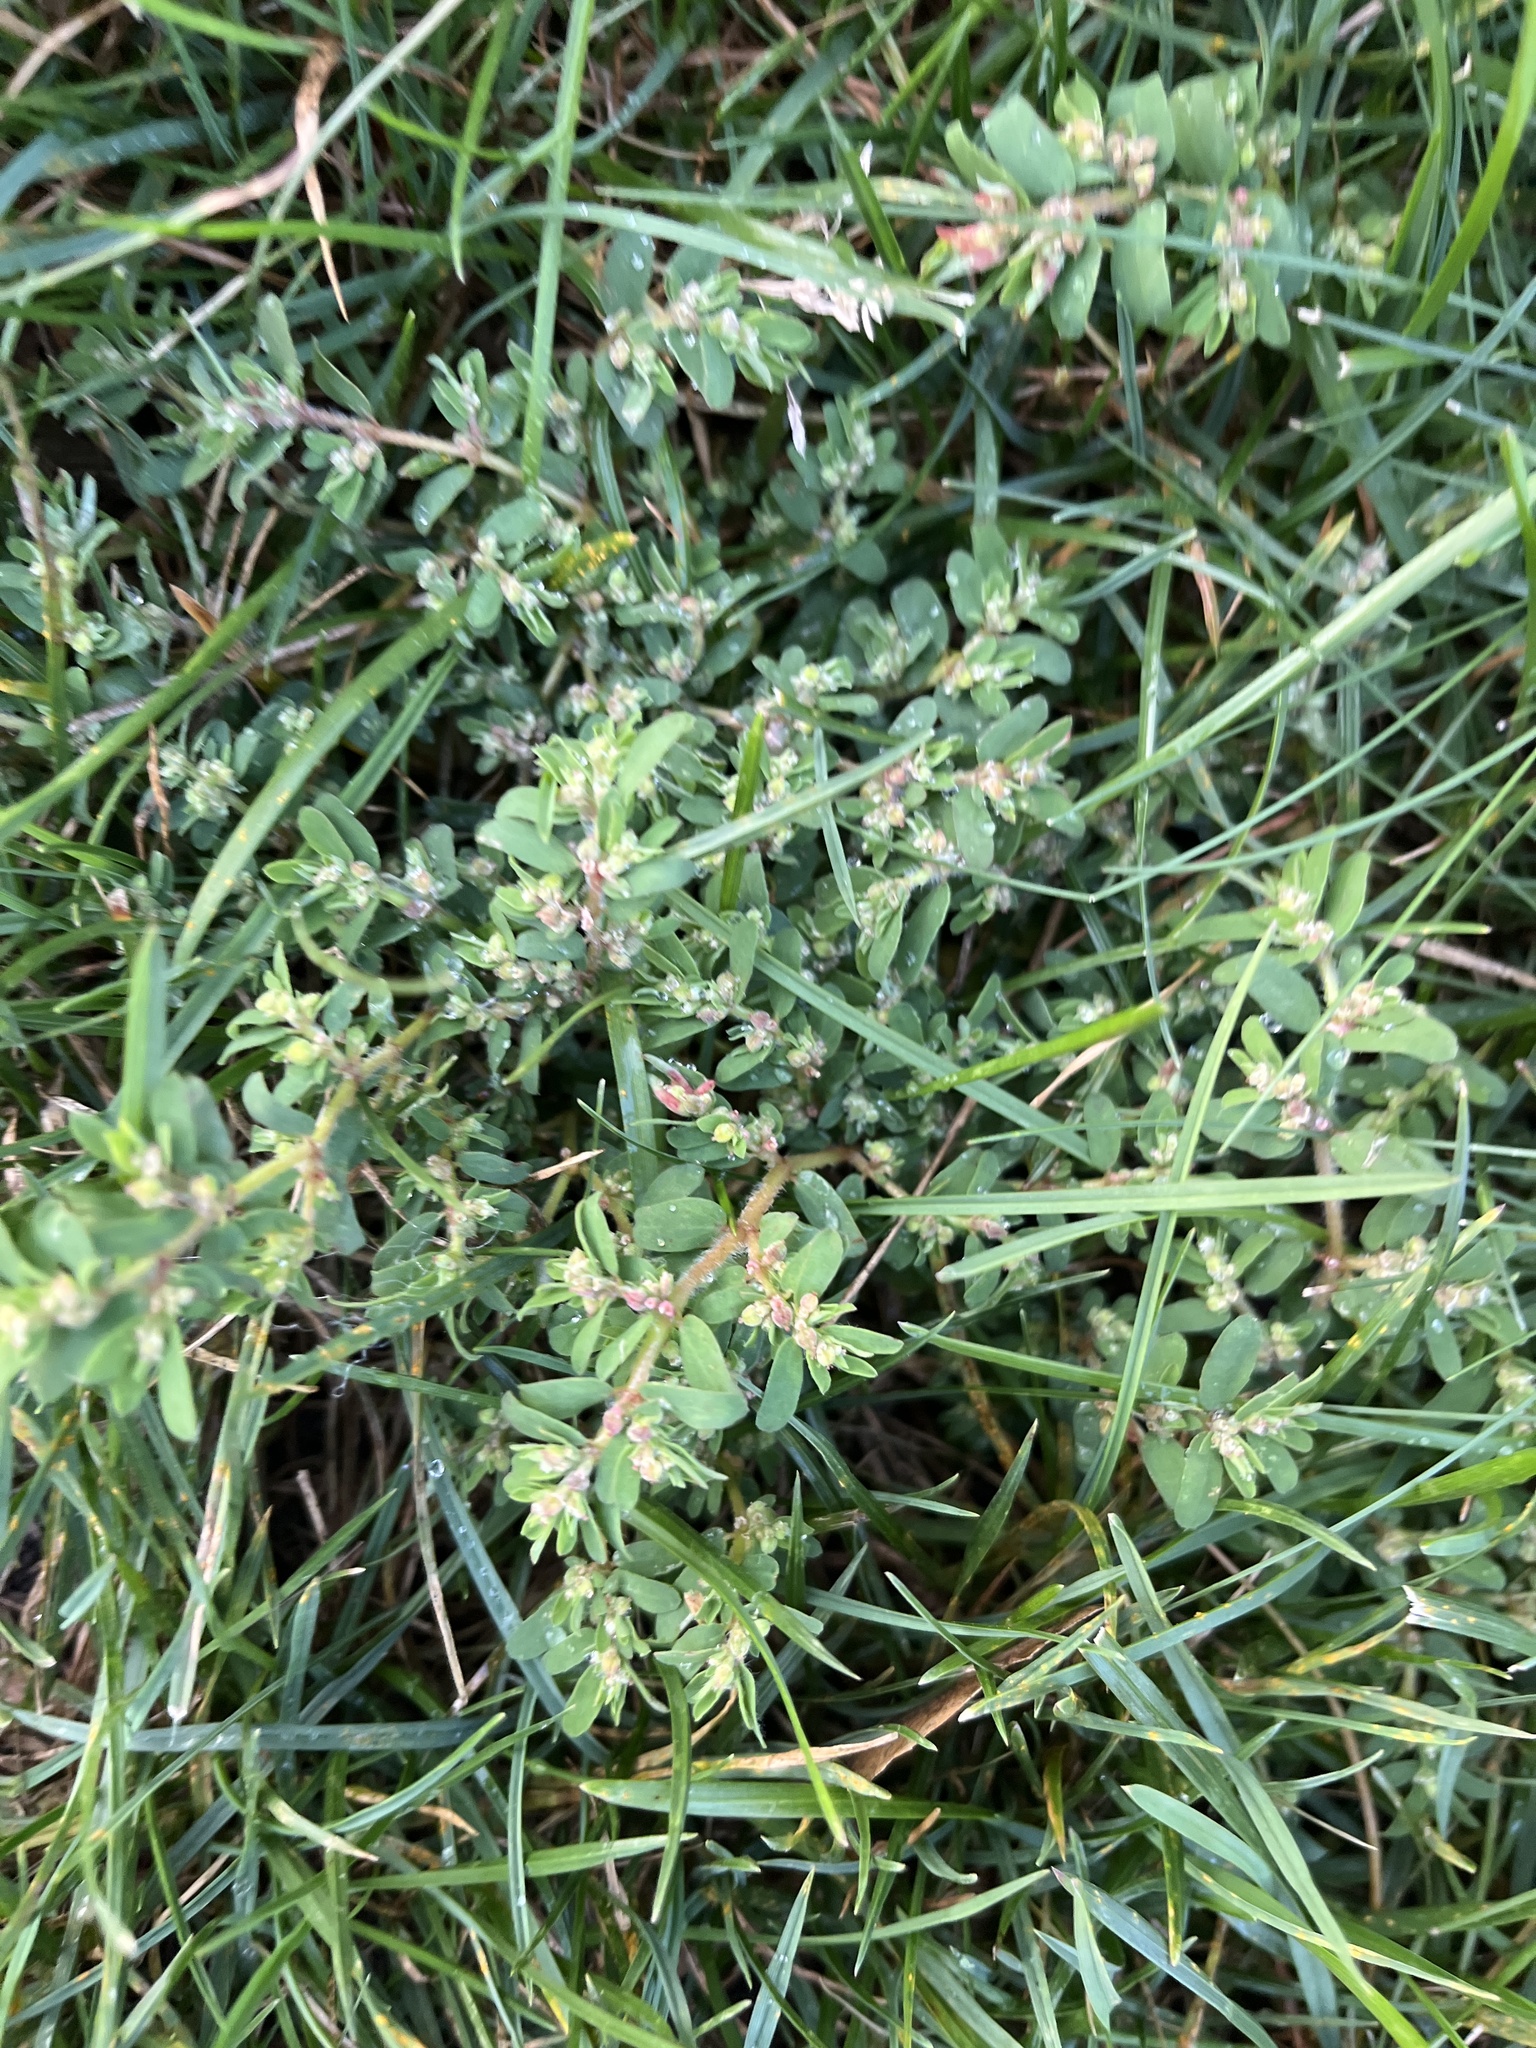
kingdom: Plantae
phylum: Tracheophyta
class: Magnoliopsida
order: Malpighiales
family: Euphorbiaceae
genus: Euphorbia
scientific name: Euphorbia maculata
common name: Spotted spurge
